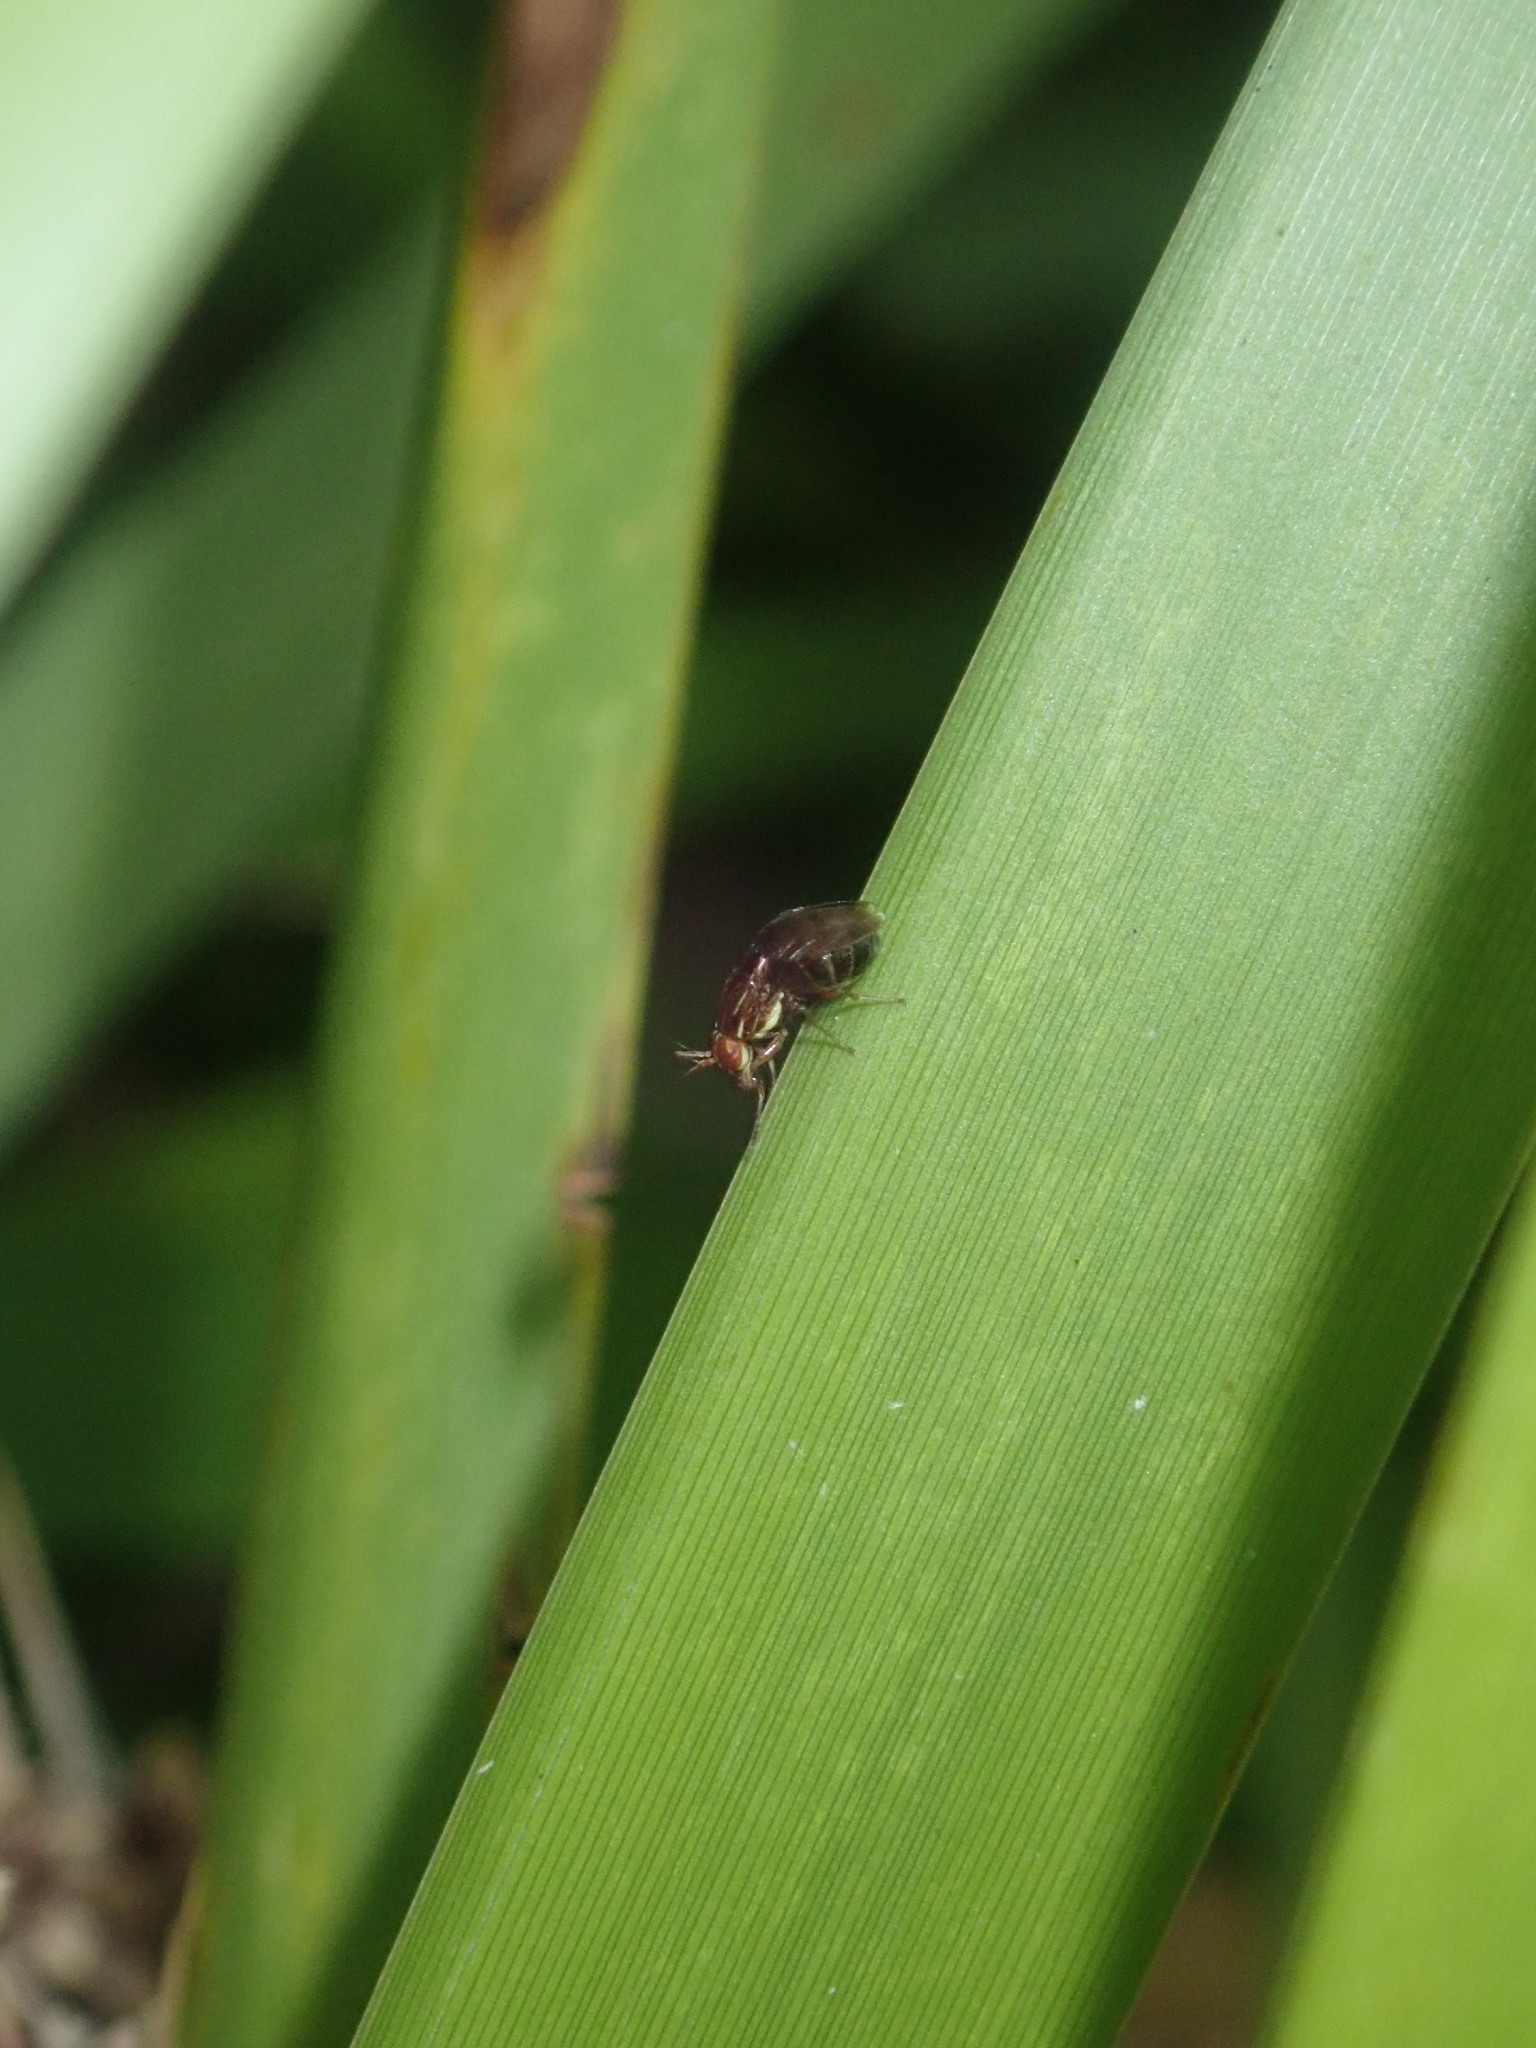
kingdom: Animalia
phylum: Arthropoda
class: Insecta
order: Diptera
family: Lauxaniidae
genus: Steganopsis
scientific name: Steganopsis melanogaster
